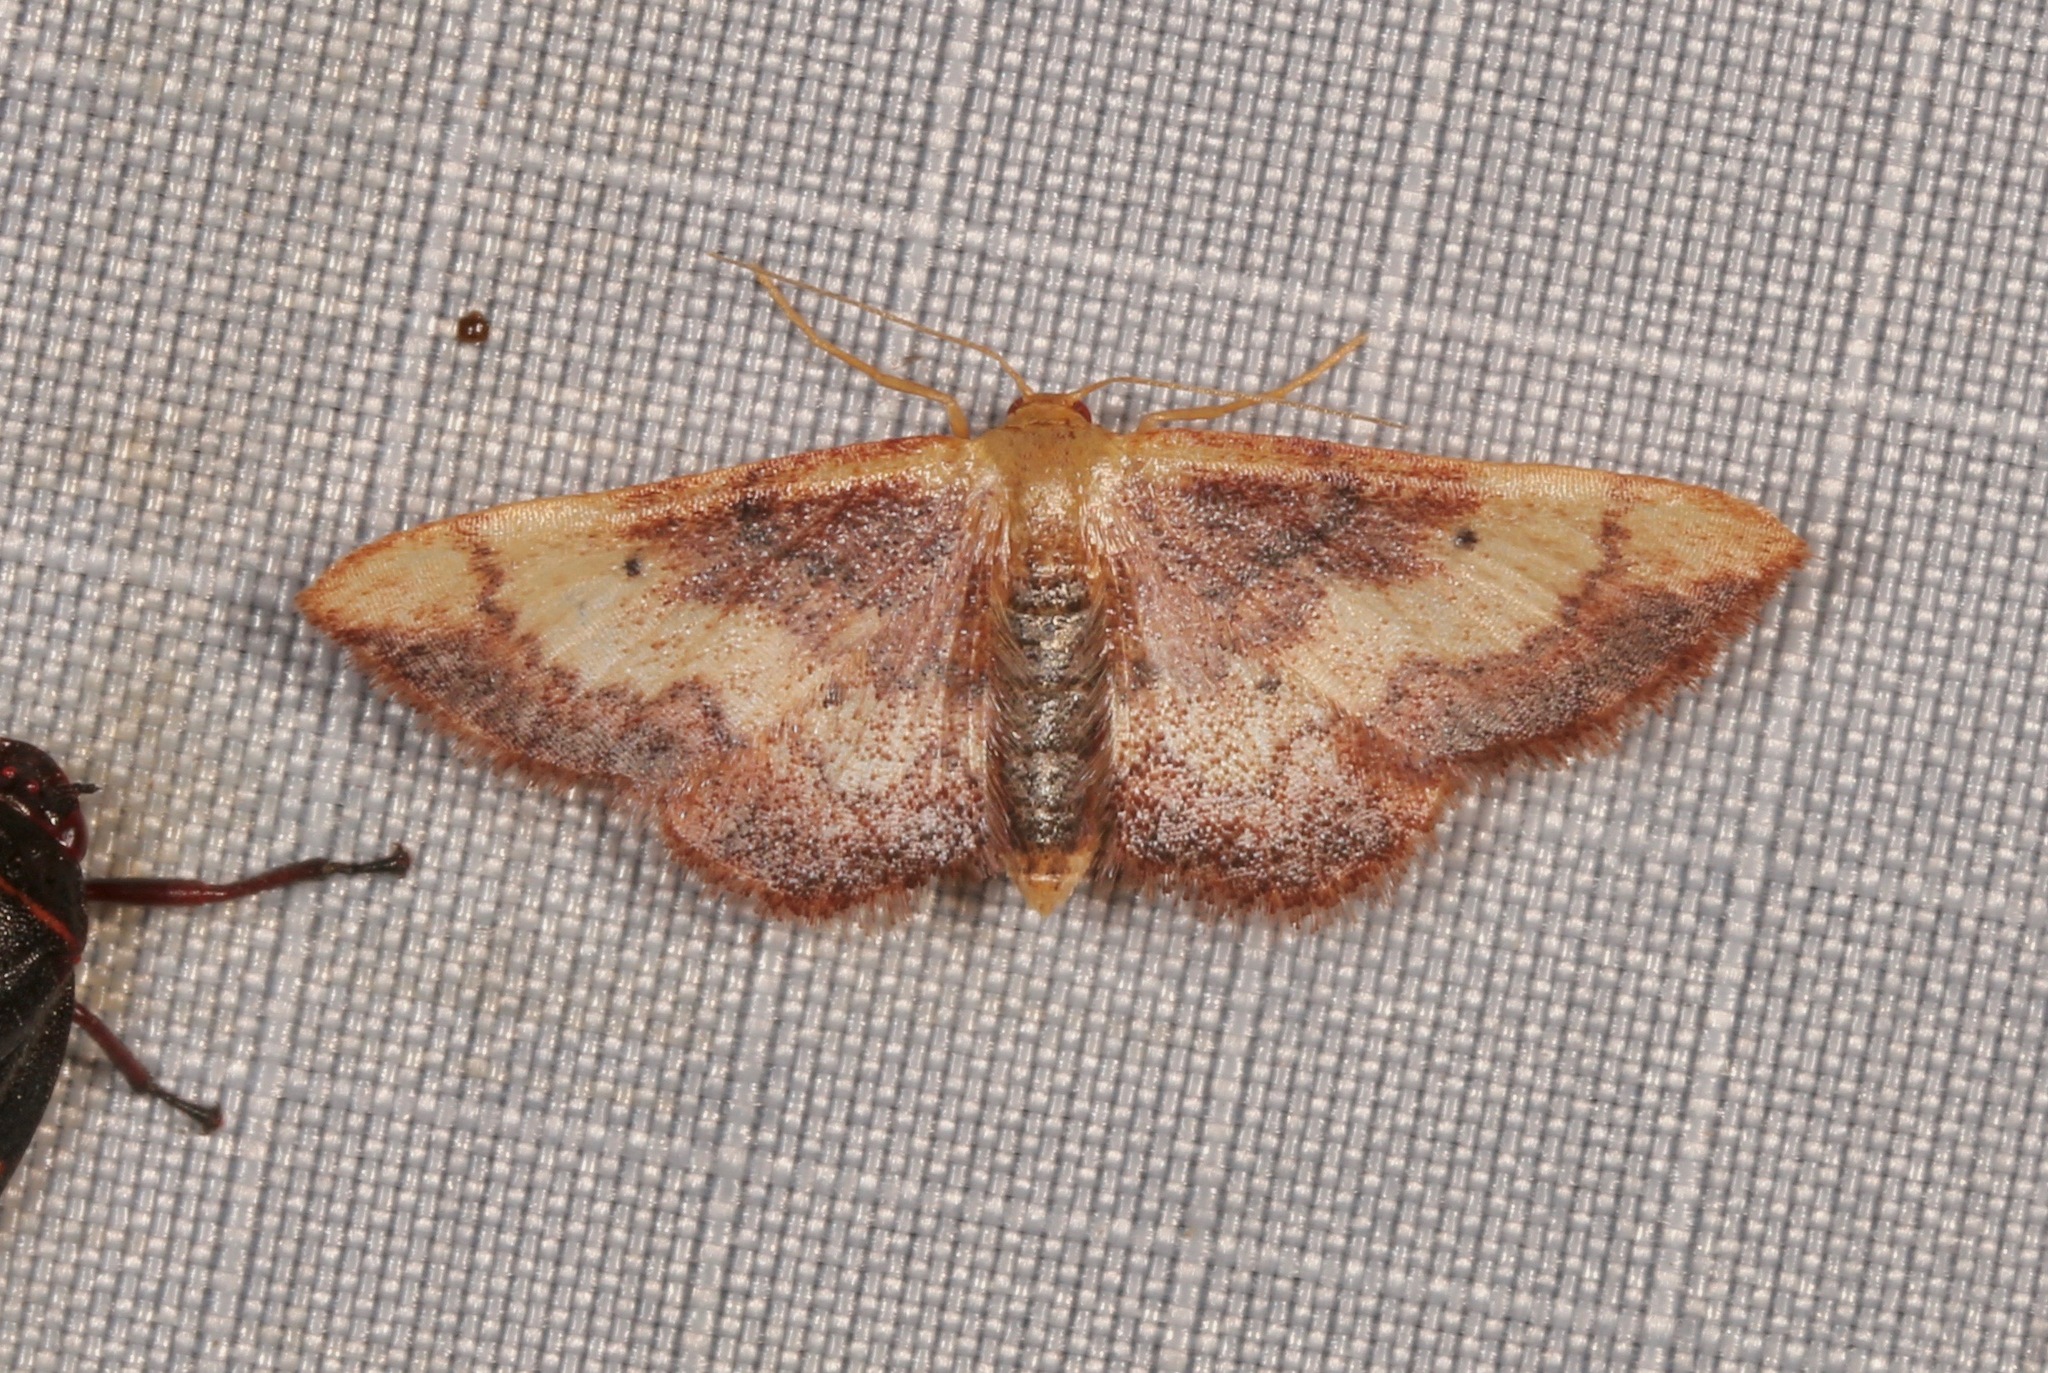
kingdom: Animalia
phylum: Arthropoda
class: Insecta
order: Lepidoptera
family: Geometridae
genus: Idaea
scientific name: Idaea demissaria
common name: Red-bordered wave
